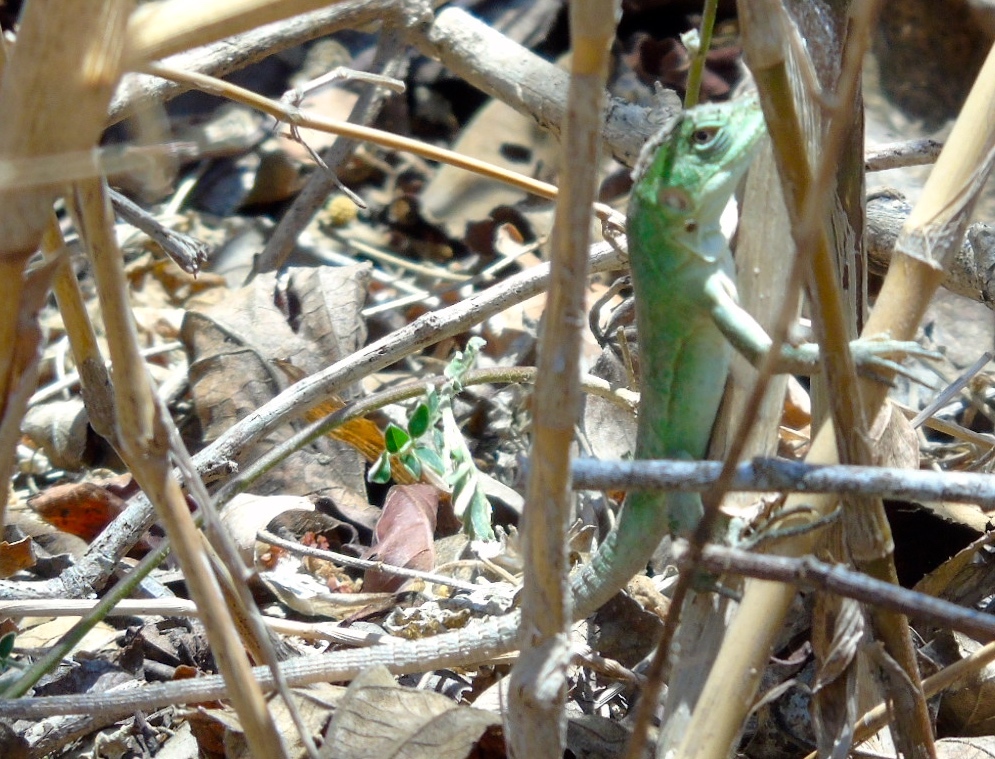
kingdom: Animalia
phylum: Chordata
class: Squamata
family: Iguanidae
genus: Ctenosaura
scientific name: Ctenosaura pectinata
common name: Guerreran spiny-tailed iguana
